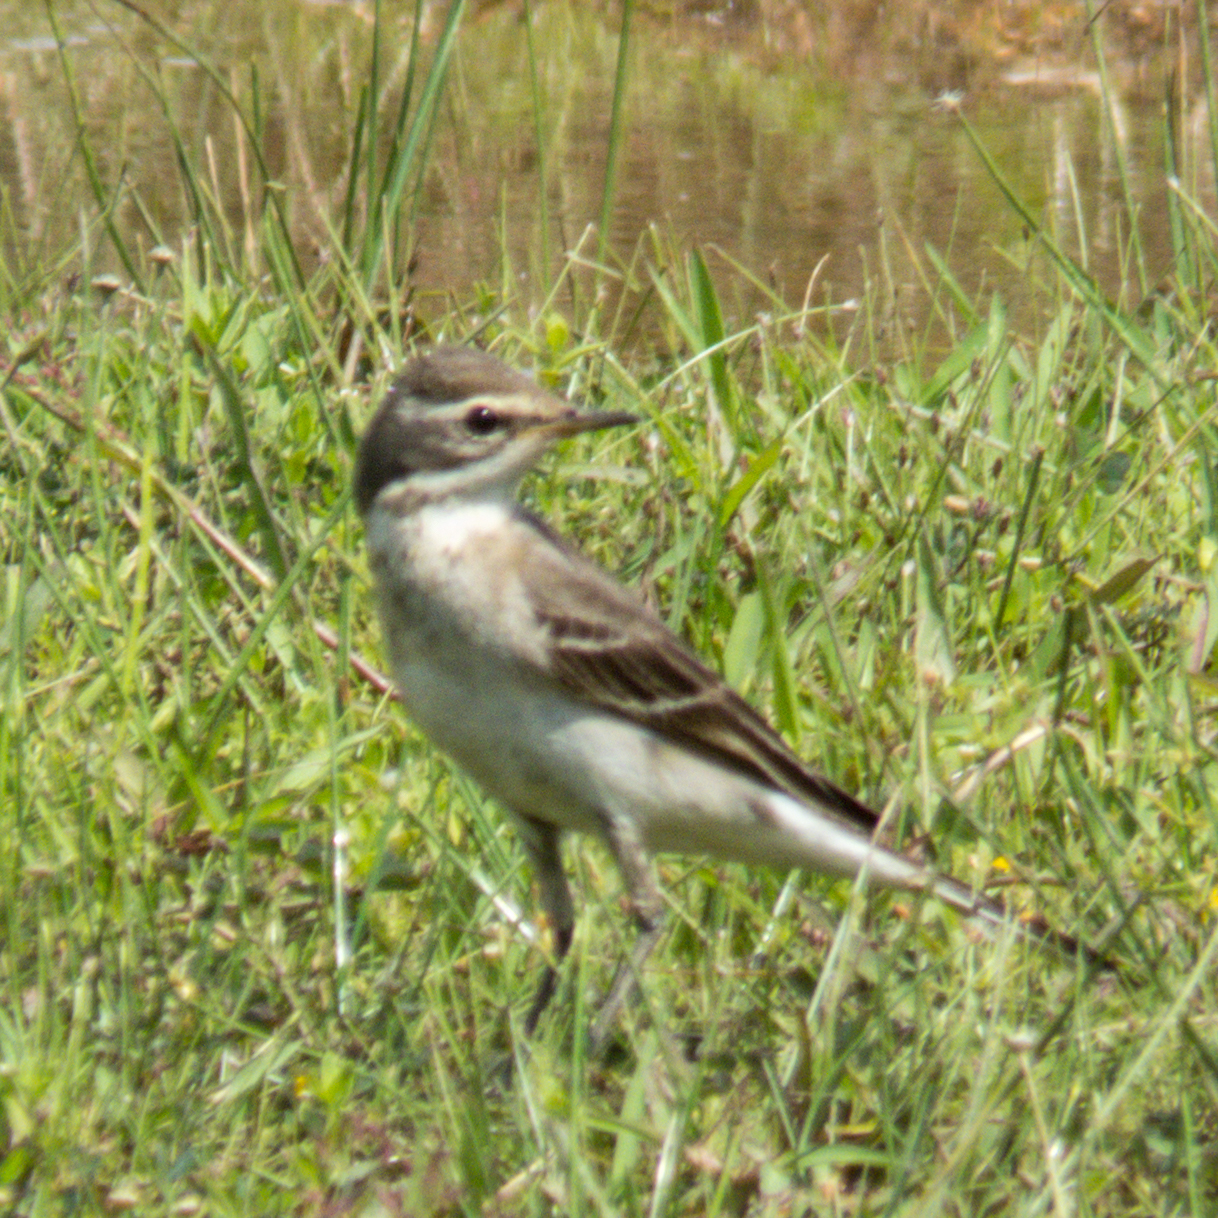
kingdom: Animalia
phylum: Chordata
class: Aves
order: Passeriformes
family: Motacillidae
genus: Motacilla
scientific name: Motacilla tschutschensis
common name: Eastern yellow wagtail
